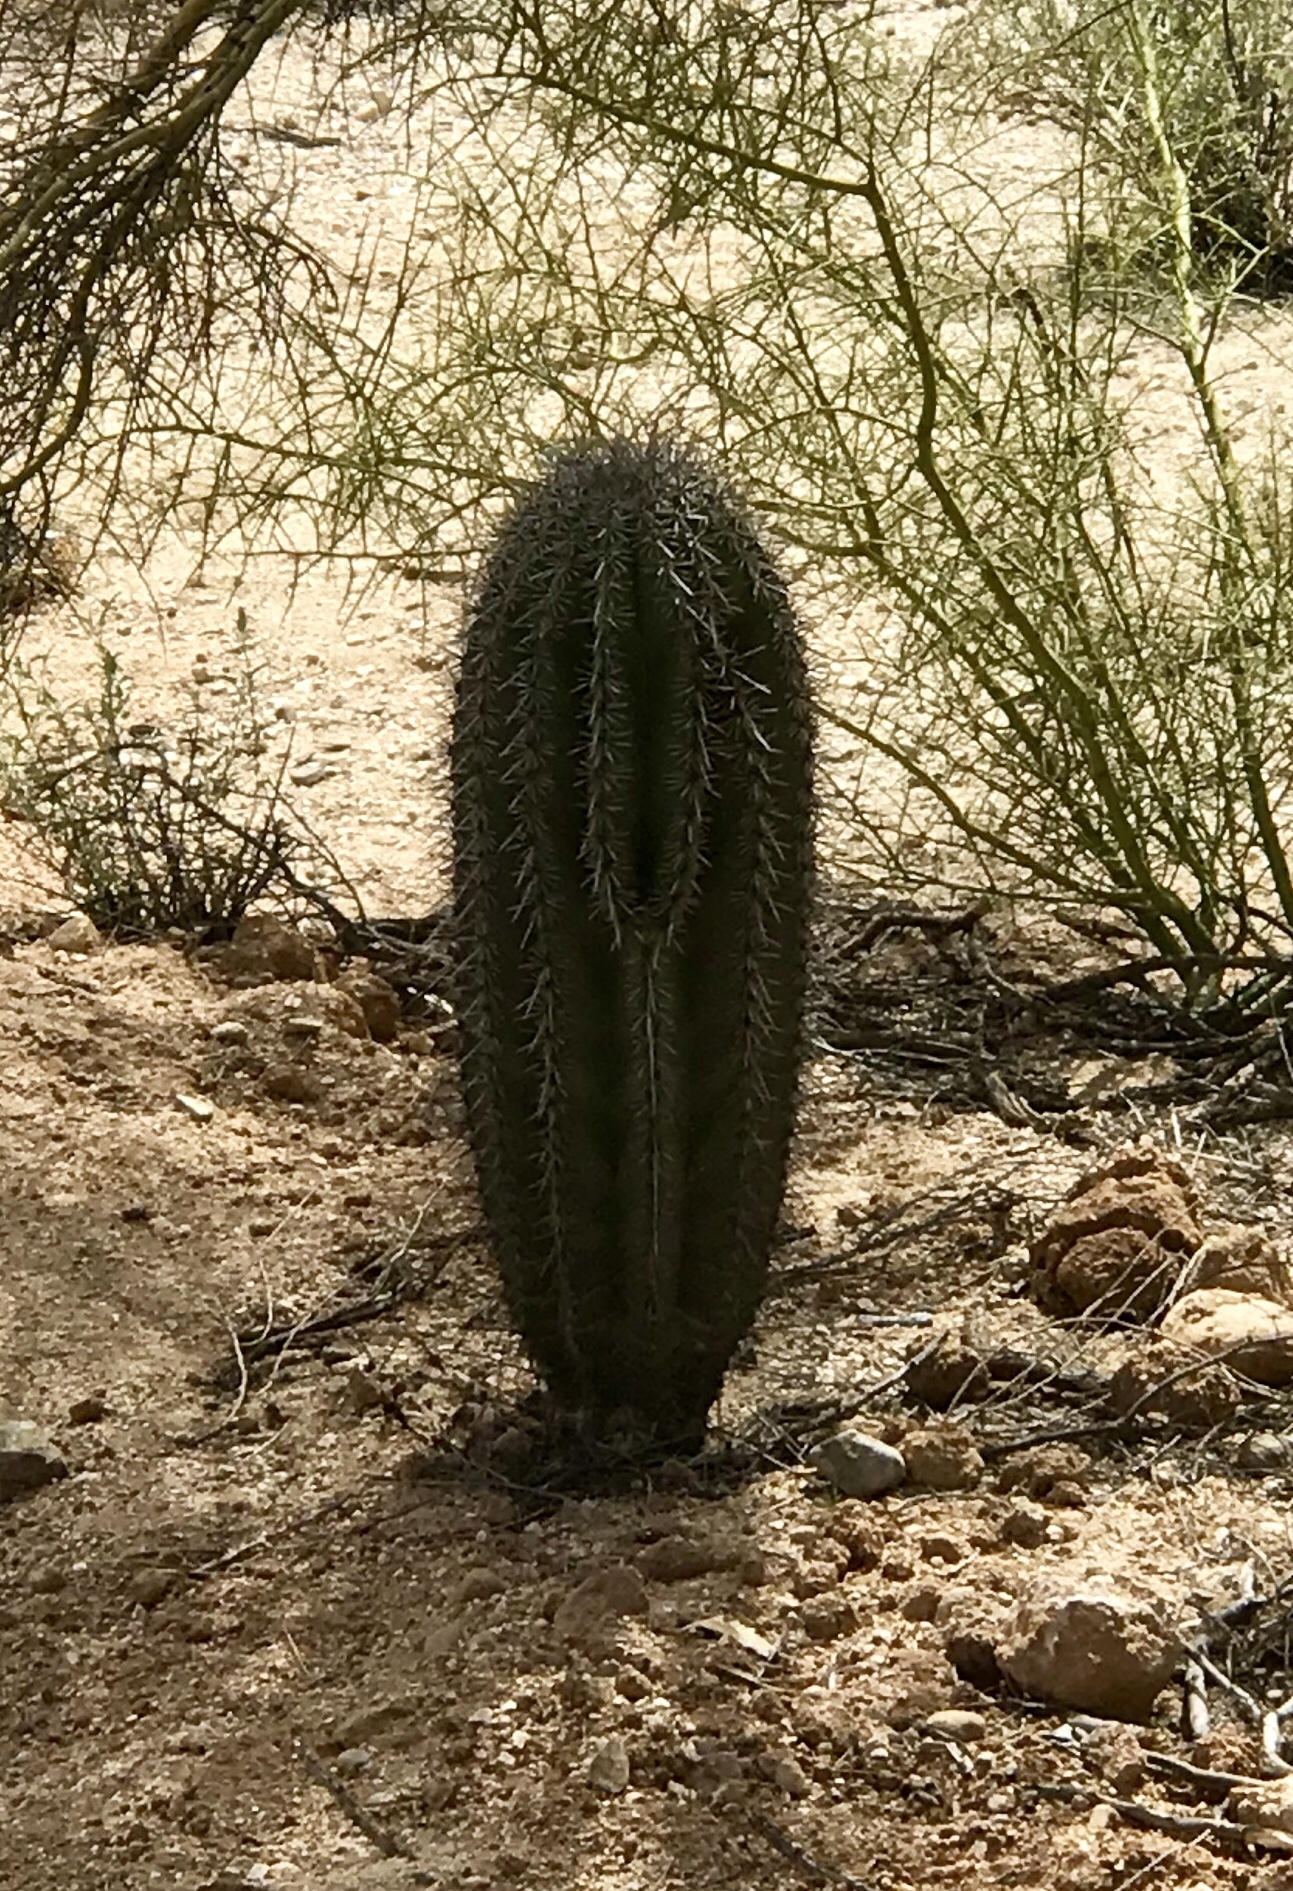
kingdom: Plantae
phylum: Tracheophyta
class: Magnoliopsida
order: Caryophyllales
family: Cactaceae
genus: Carnegiea
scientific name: Carnegiea gigantea
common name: Saguaro
